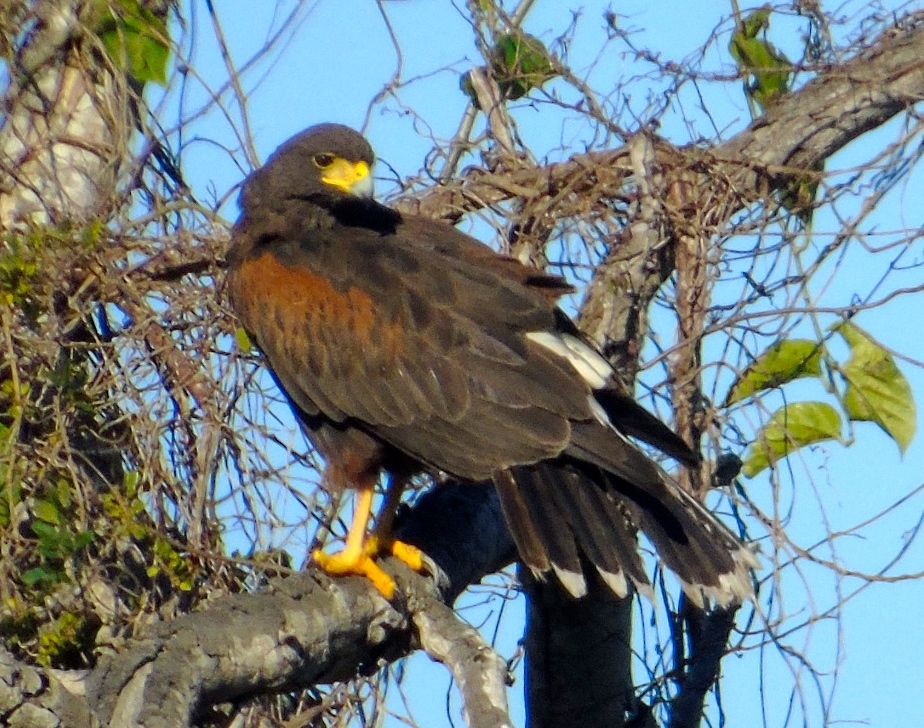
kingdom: Animalia
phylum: Chordata
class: Aves
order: Accipitriformes
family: Accipitridae
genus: Parabuteo
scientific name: Parabuteo unicinctus
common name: Harris's hawk
